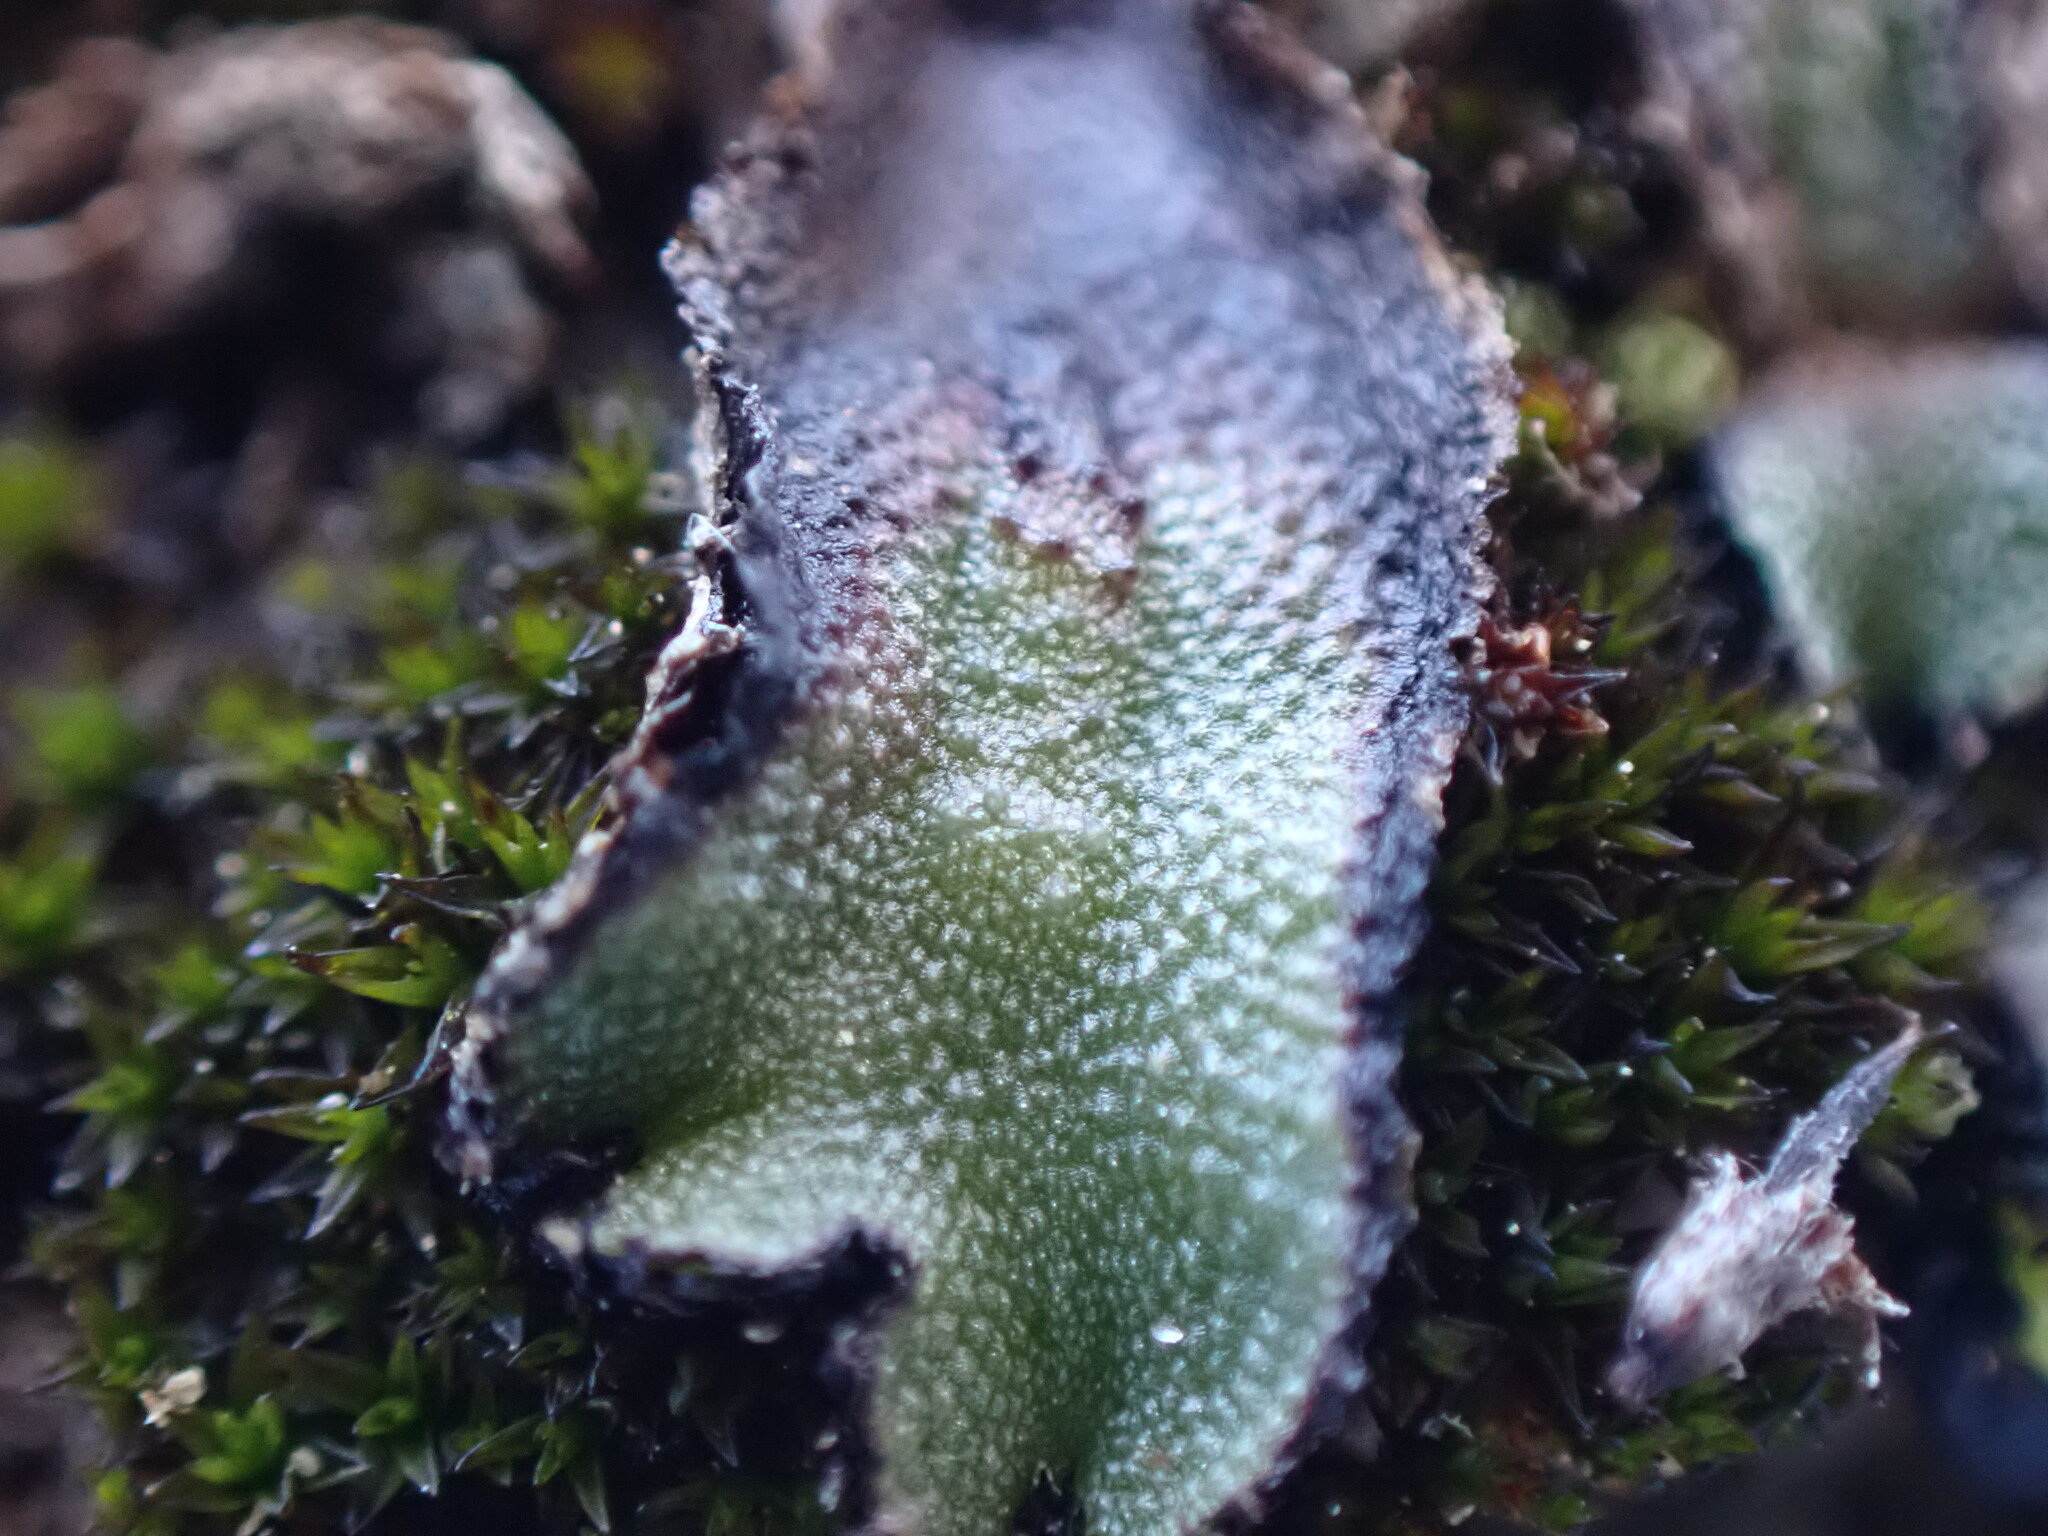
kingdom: Plantae
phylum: Marchantiophyta
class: Marchantiopsida
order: Marchantiales
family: Aytoniaceae
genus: Asterella
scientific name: Asterella californica
